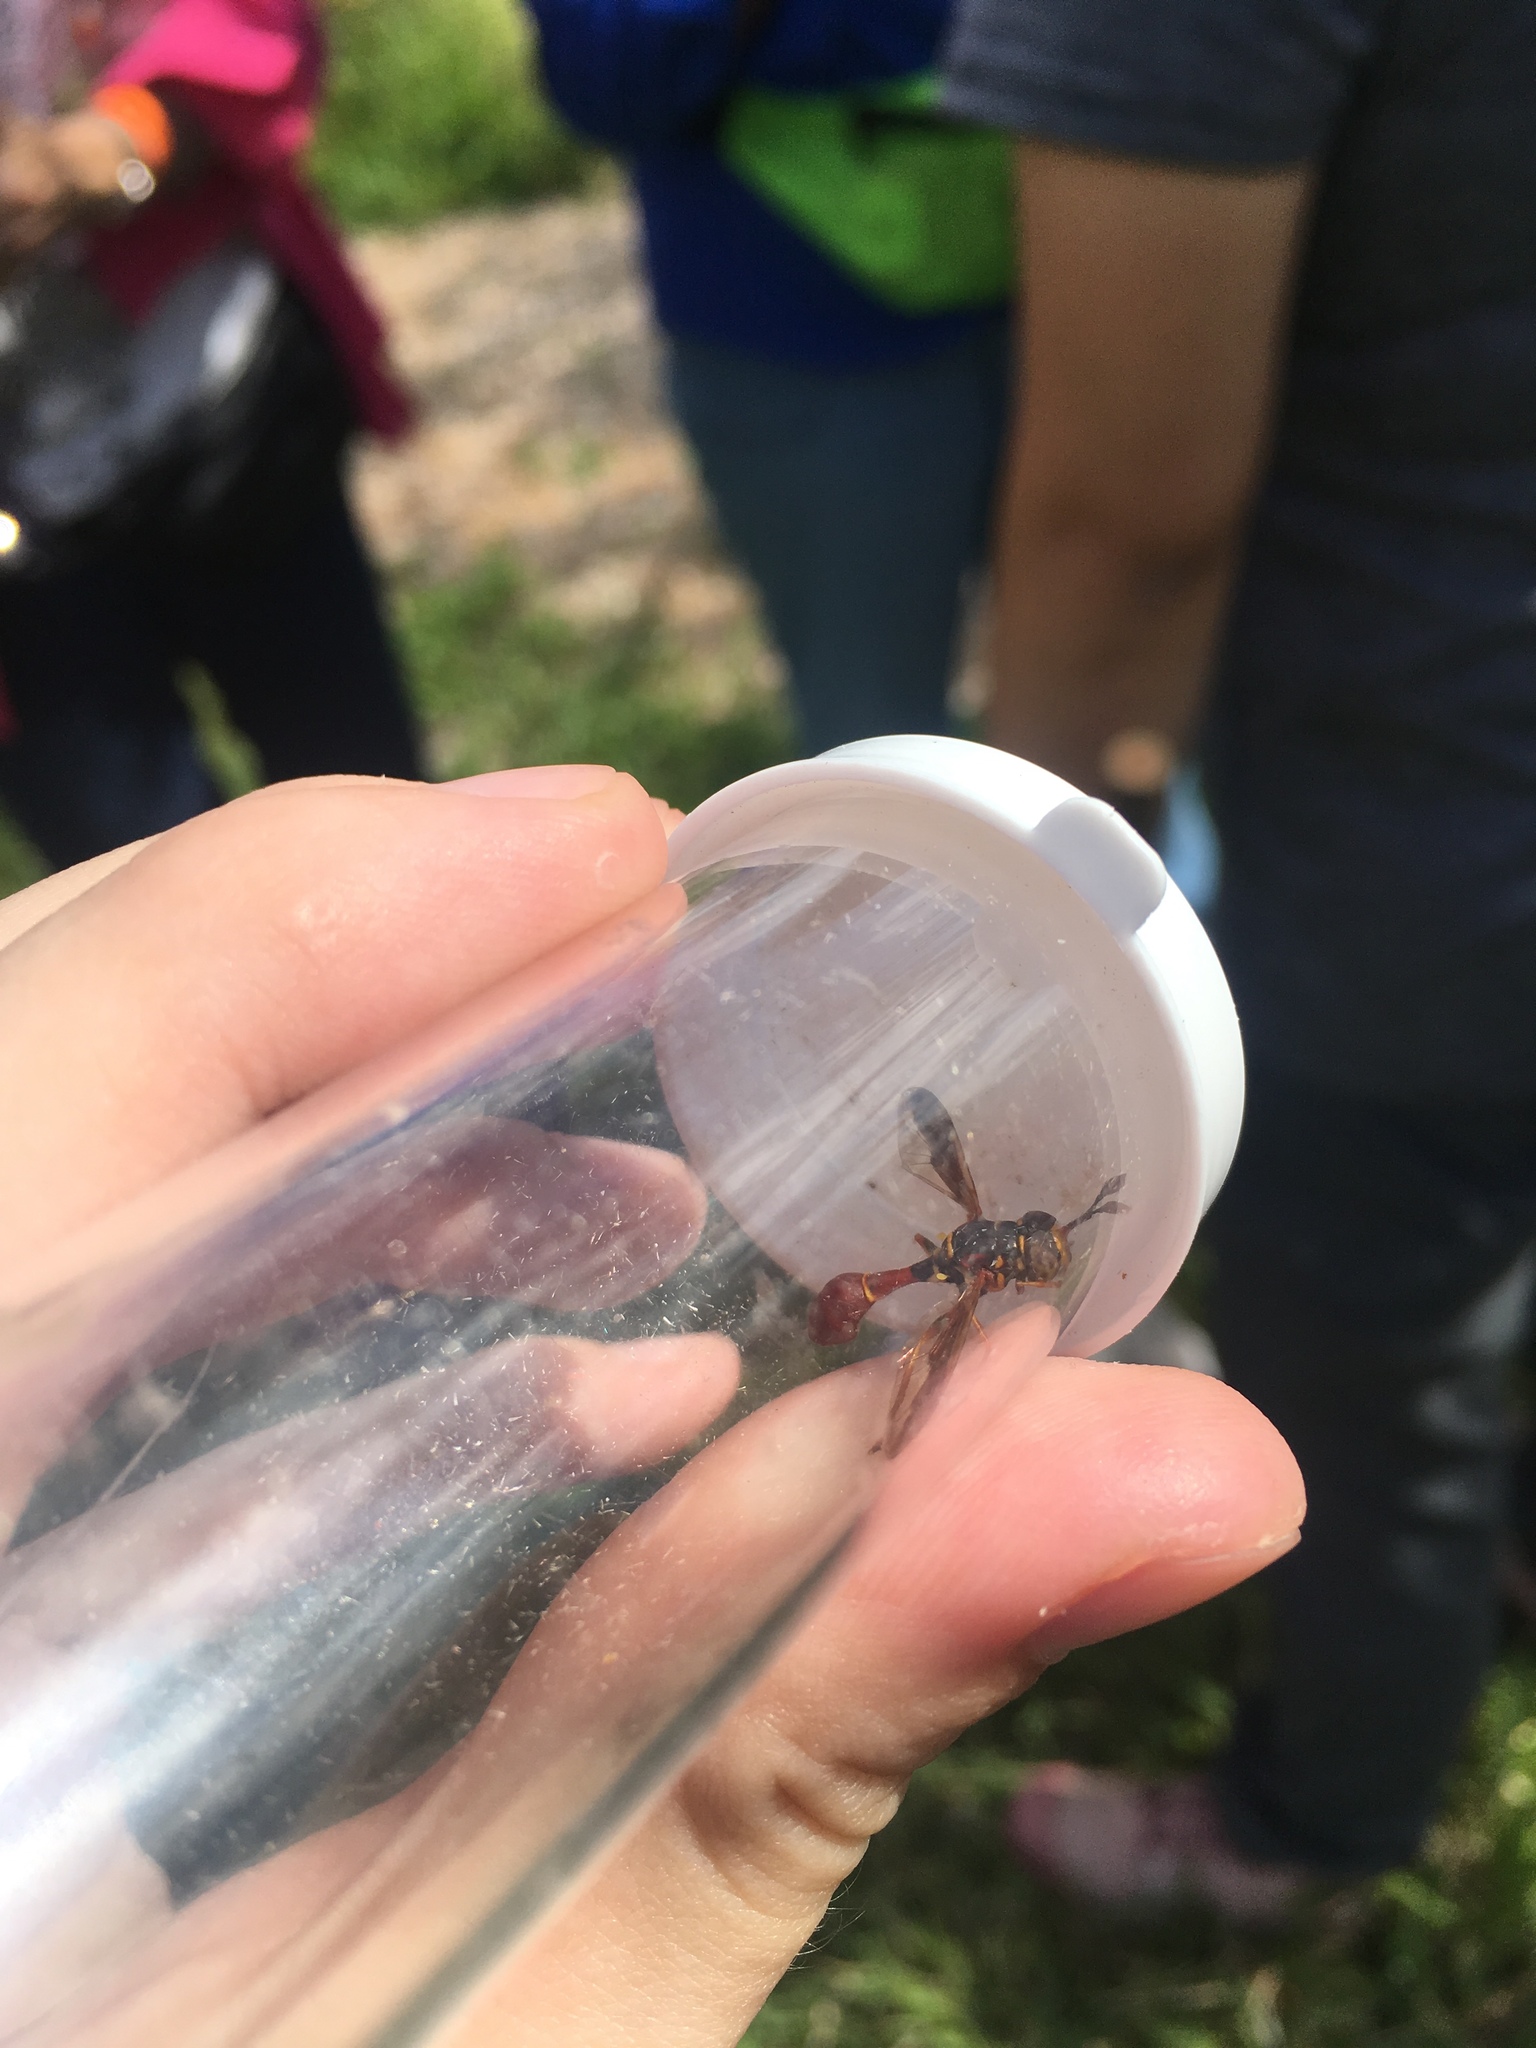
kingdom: Animalia
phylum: Arthropoda
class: Insecta
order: Diptera
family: Syrphidae
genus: Monoceromyia
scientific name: Monoceromyia floridensis
